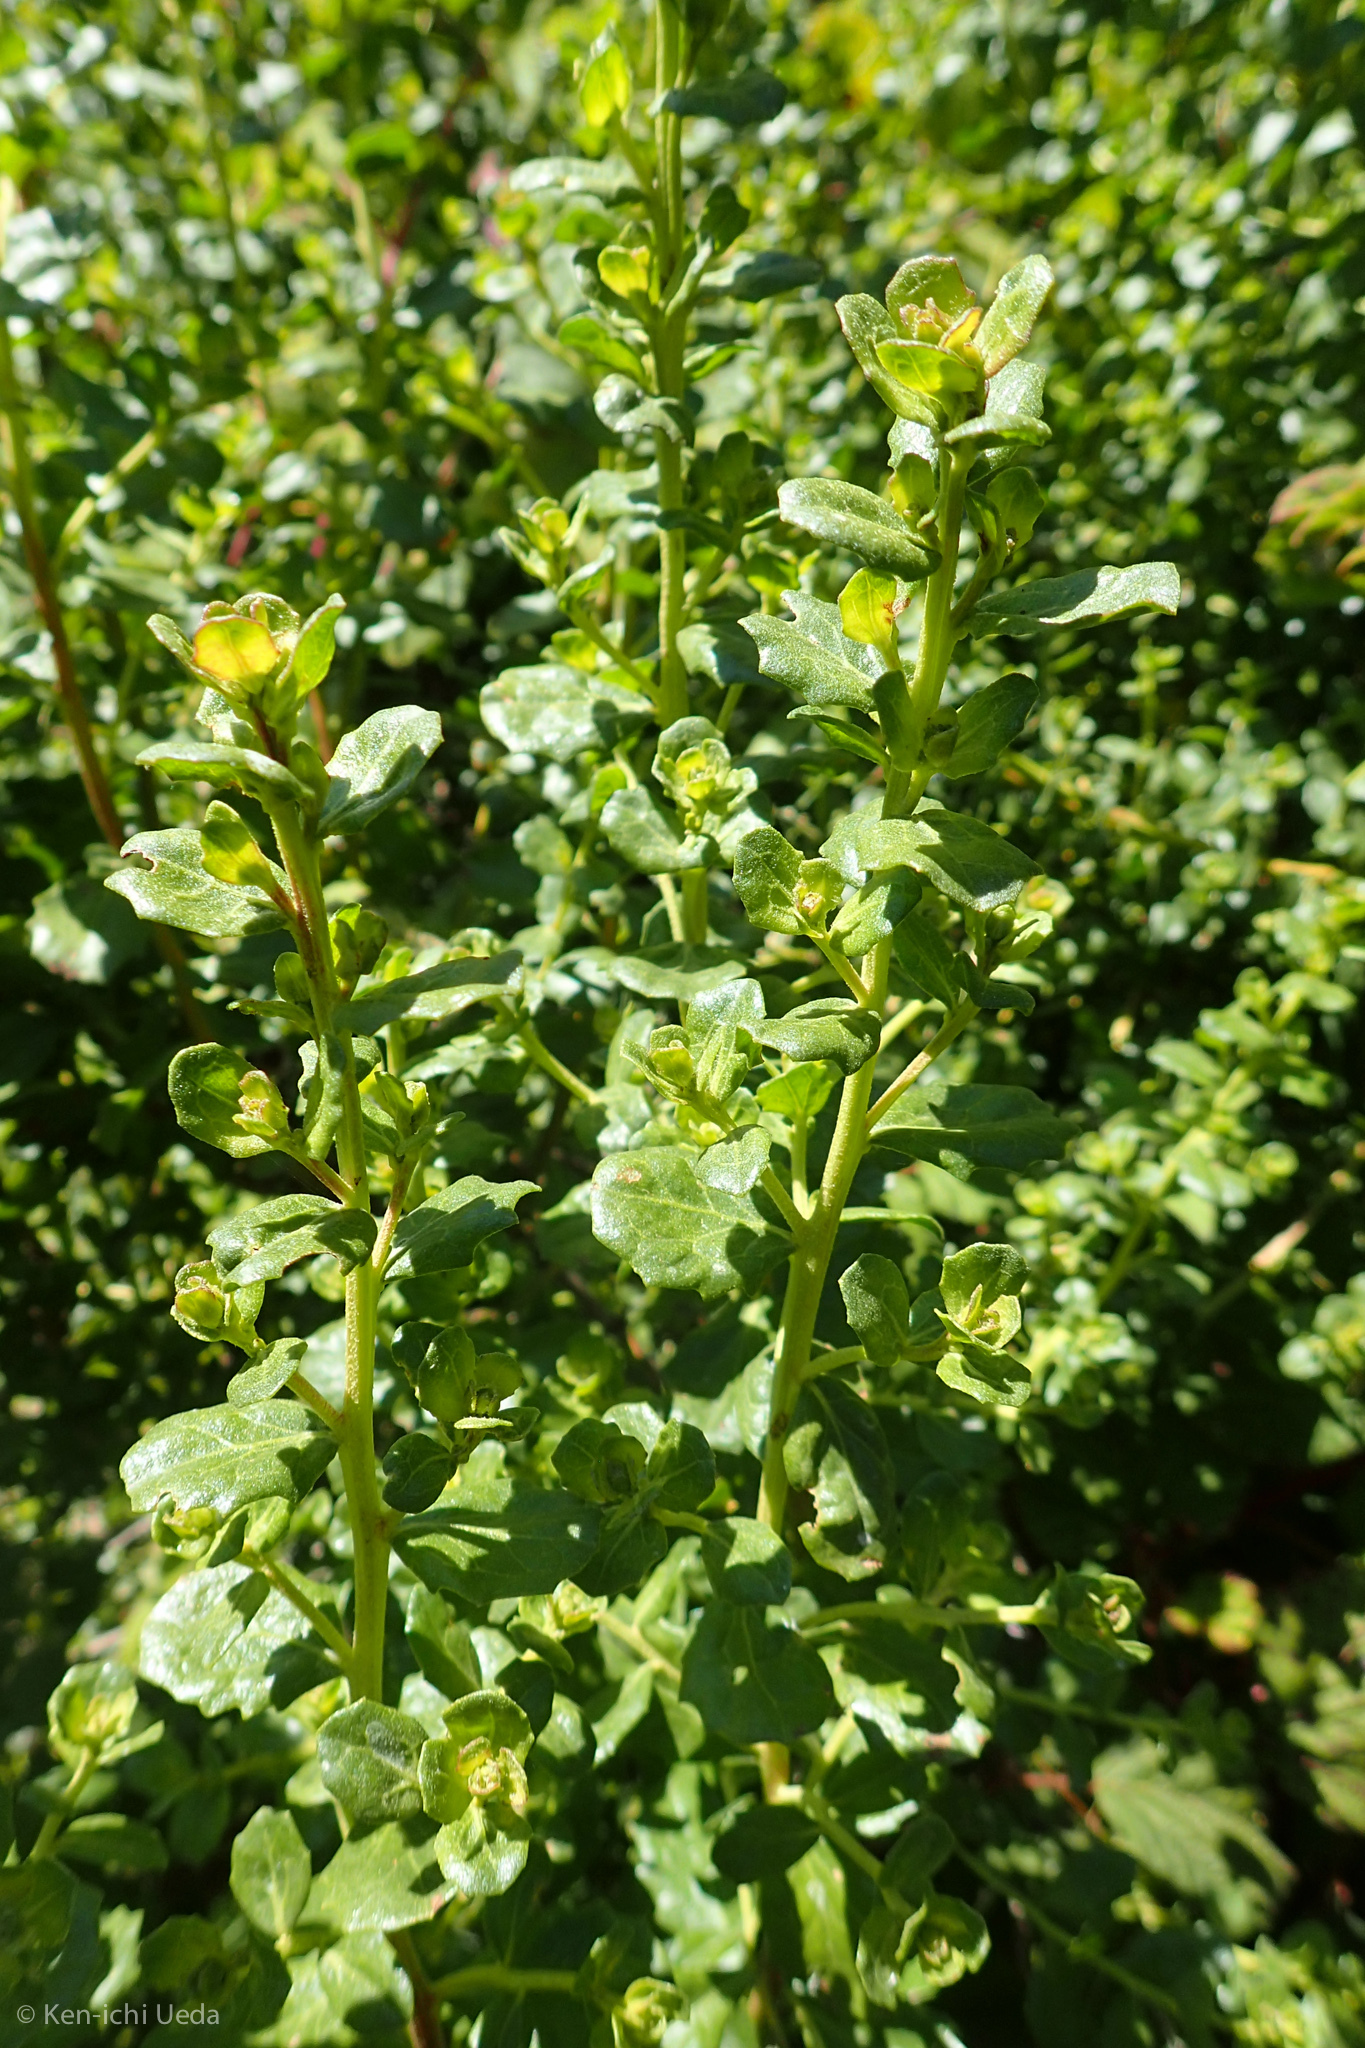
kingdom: Plantae
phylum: Tracheophyta
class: Magnoliopsida
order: Asterales
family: Asteraceae
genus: Baccharis
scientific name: Baccharis pilularis
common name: Coyotebrush
